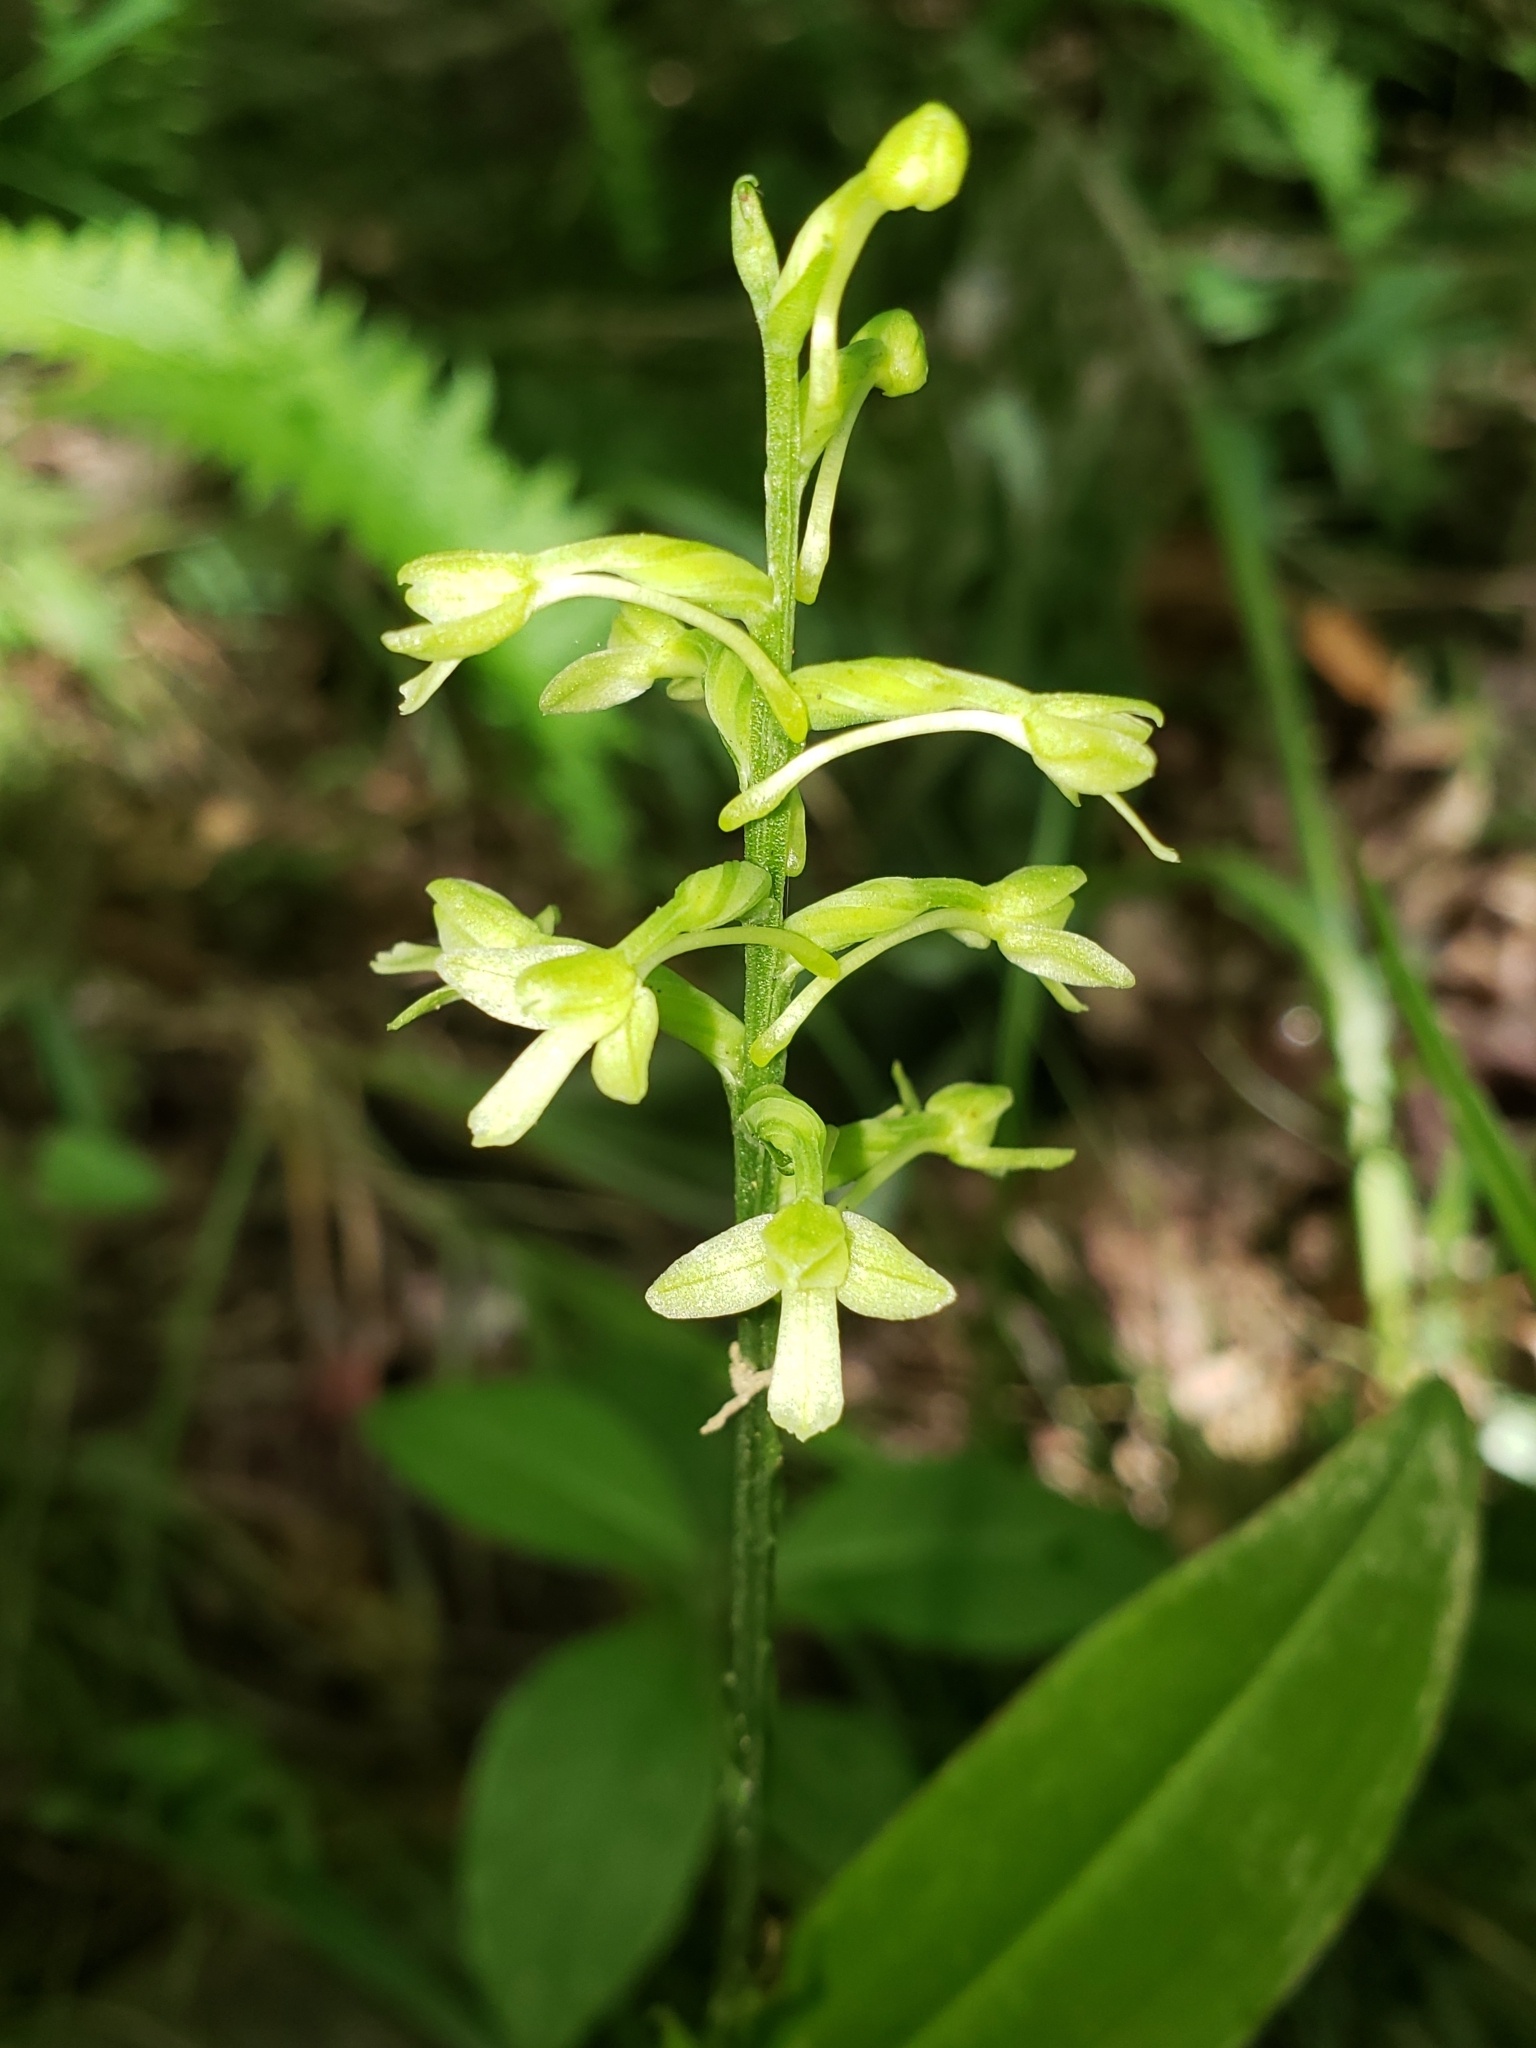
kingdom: Plantae
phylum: Tracheophyta
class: Liliopsida
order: Asparagales
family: Orchidaceae
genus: Platanthera
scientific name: Platanthera clavellata
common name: Club-spur orchid
